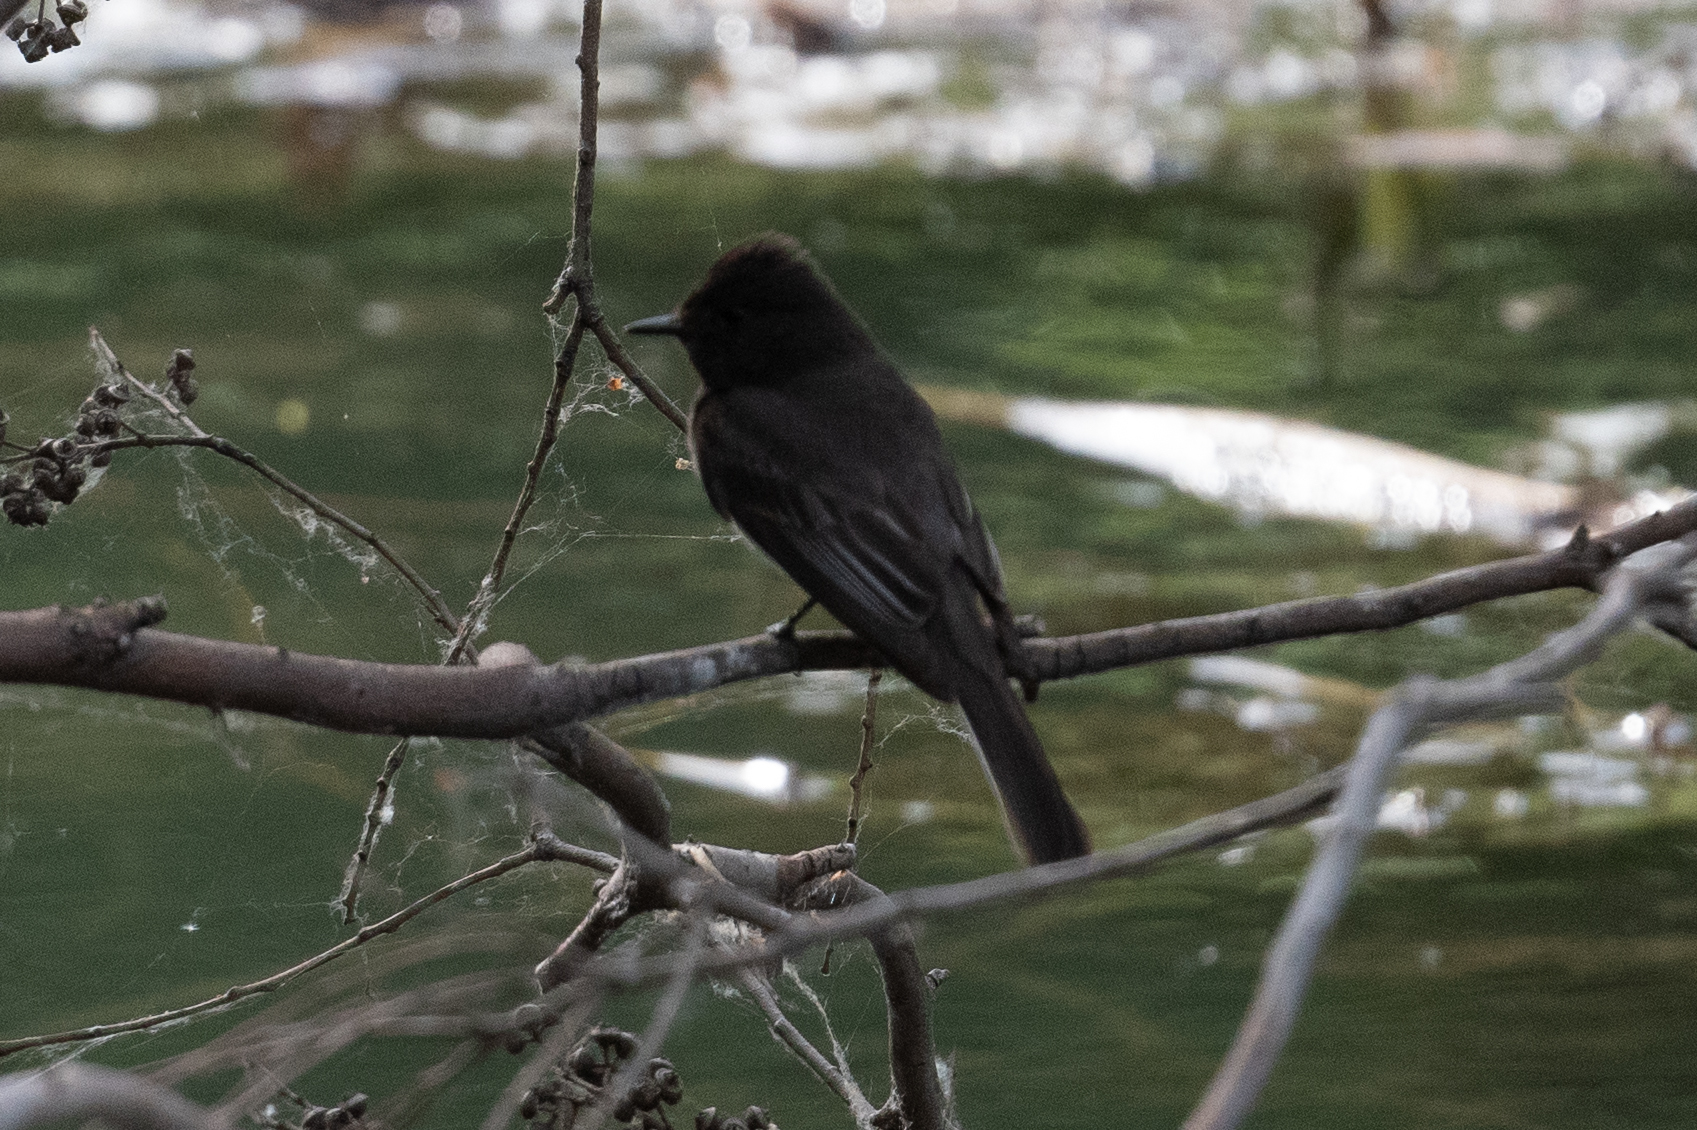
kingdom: Animalia
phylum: Chordata
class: Aves
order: Passeriformes
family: Tyrannidae
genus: Sayornis
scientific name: Sayornis nigricans
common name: Black phoebe
